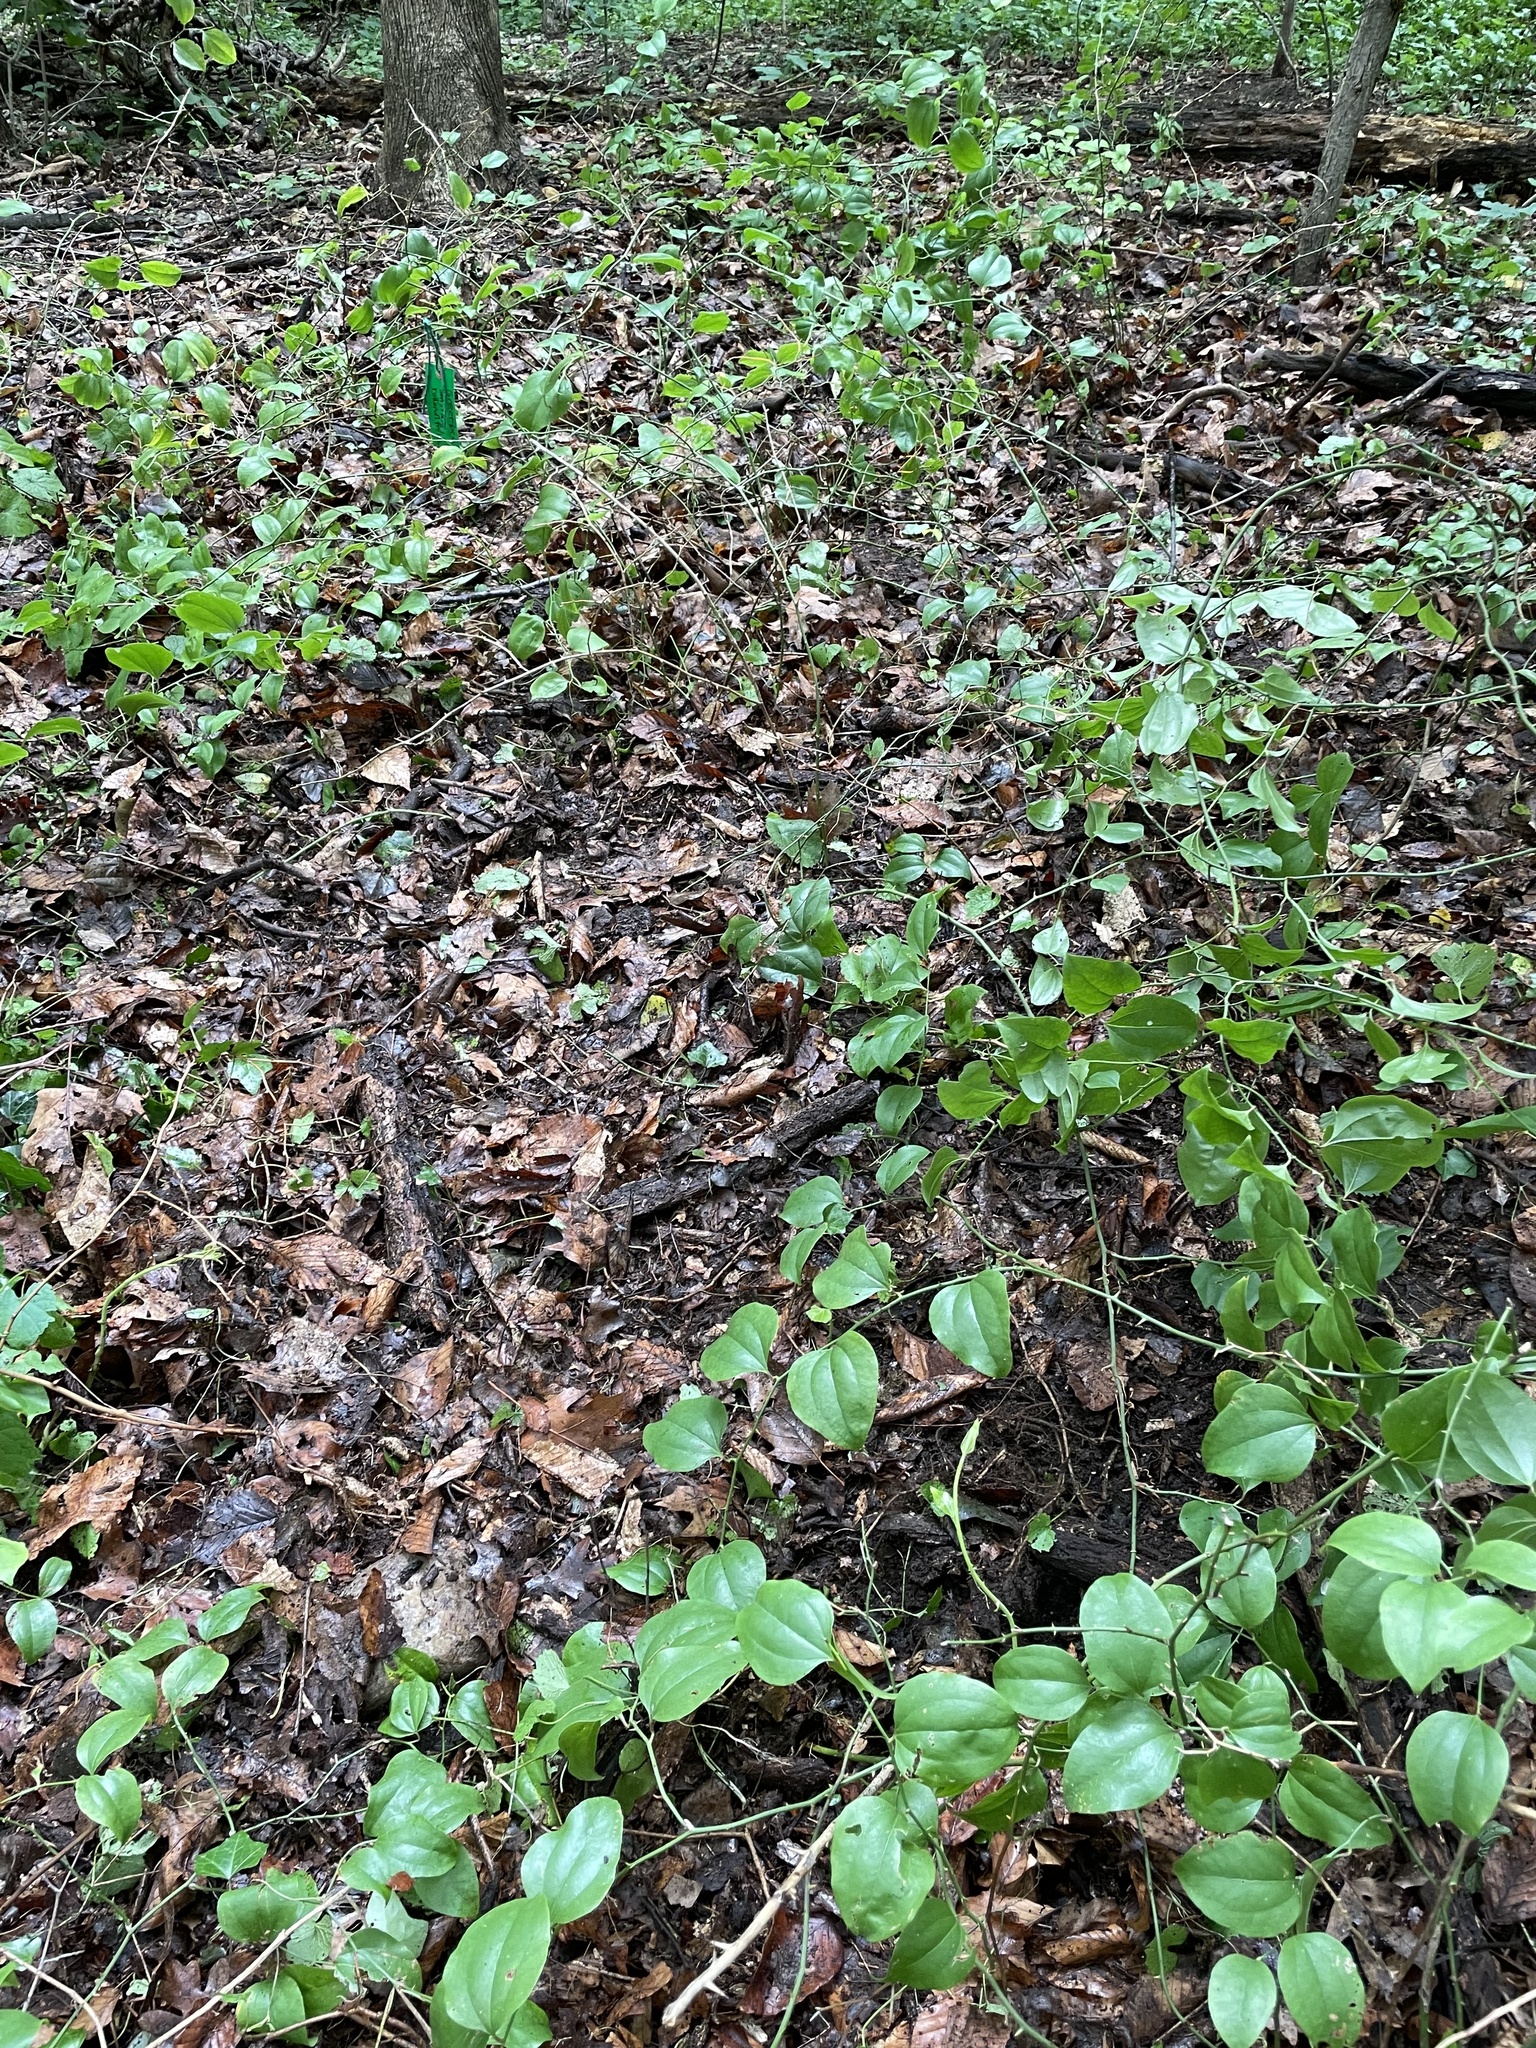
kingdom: Plantae
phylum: Tracheophyta
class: Liliopsida
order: Liliales
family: Smilacaceae
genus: Smilax
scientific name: Smilax rotundifolia
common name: Bullbriar
